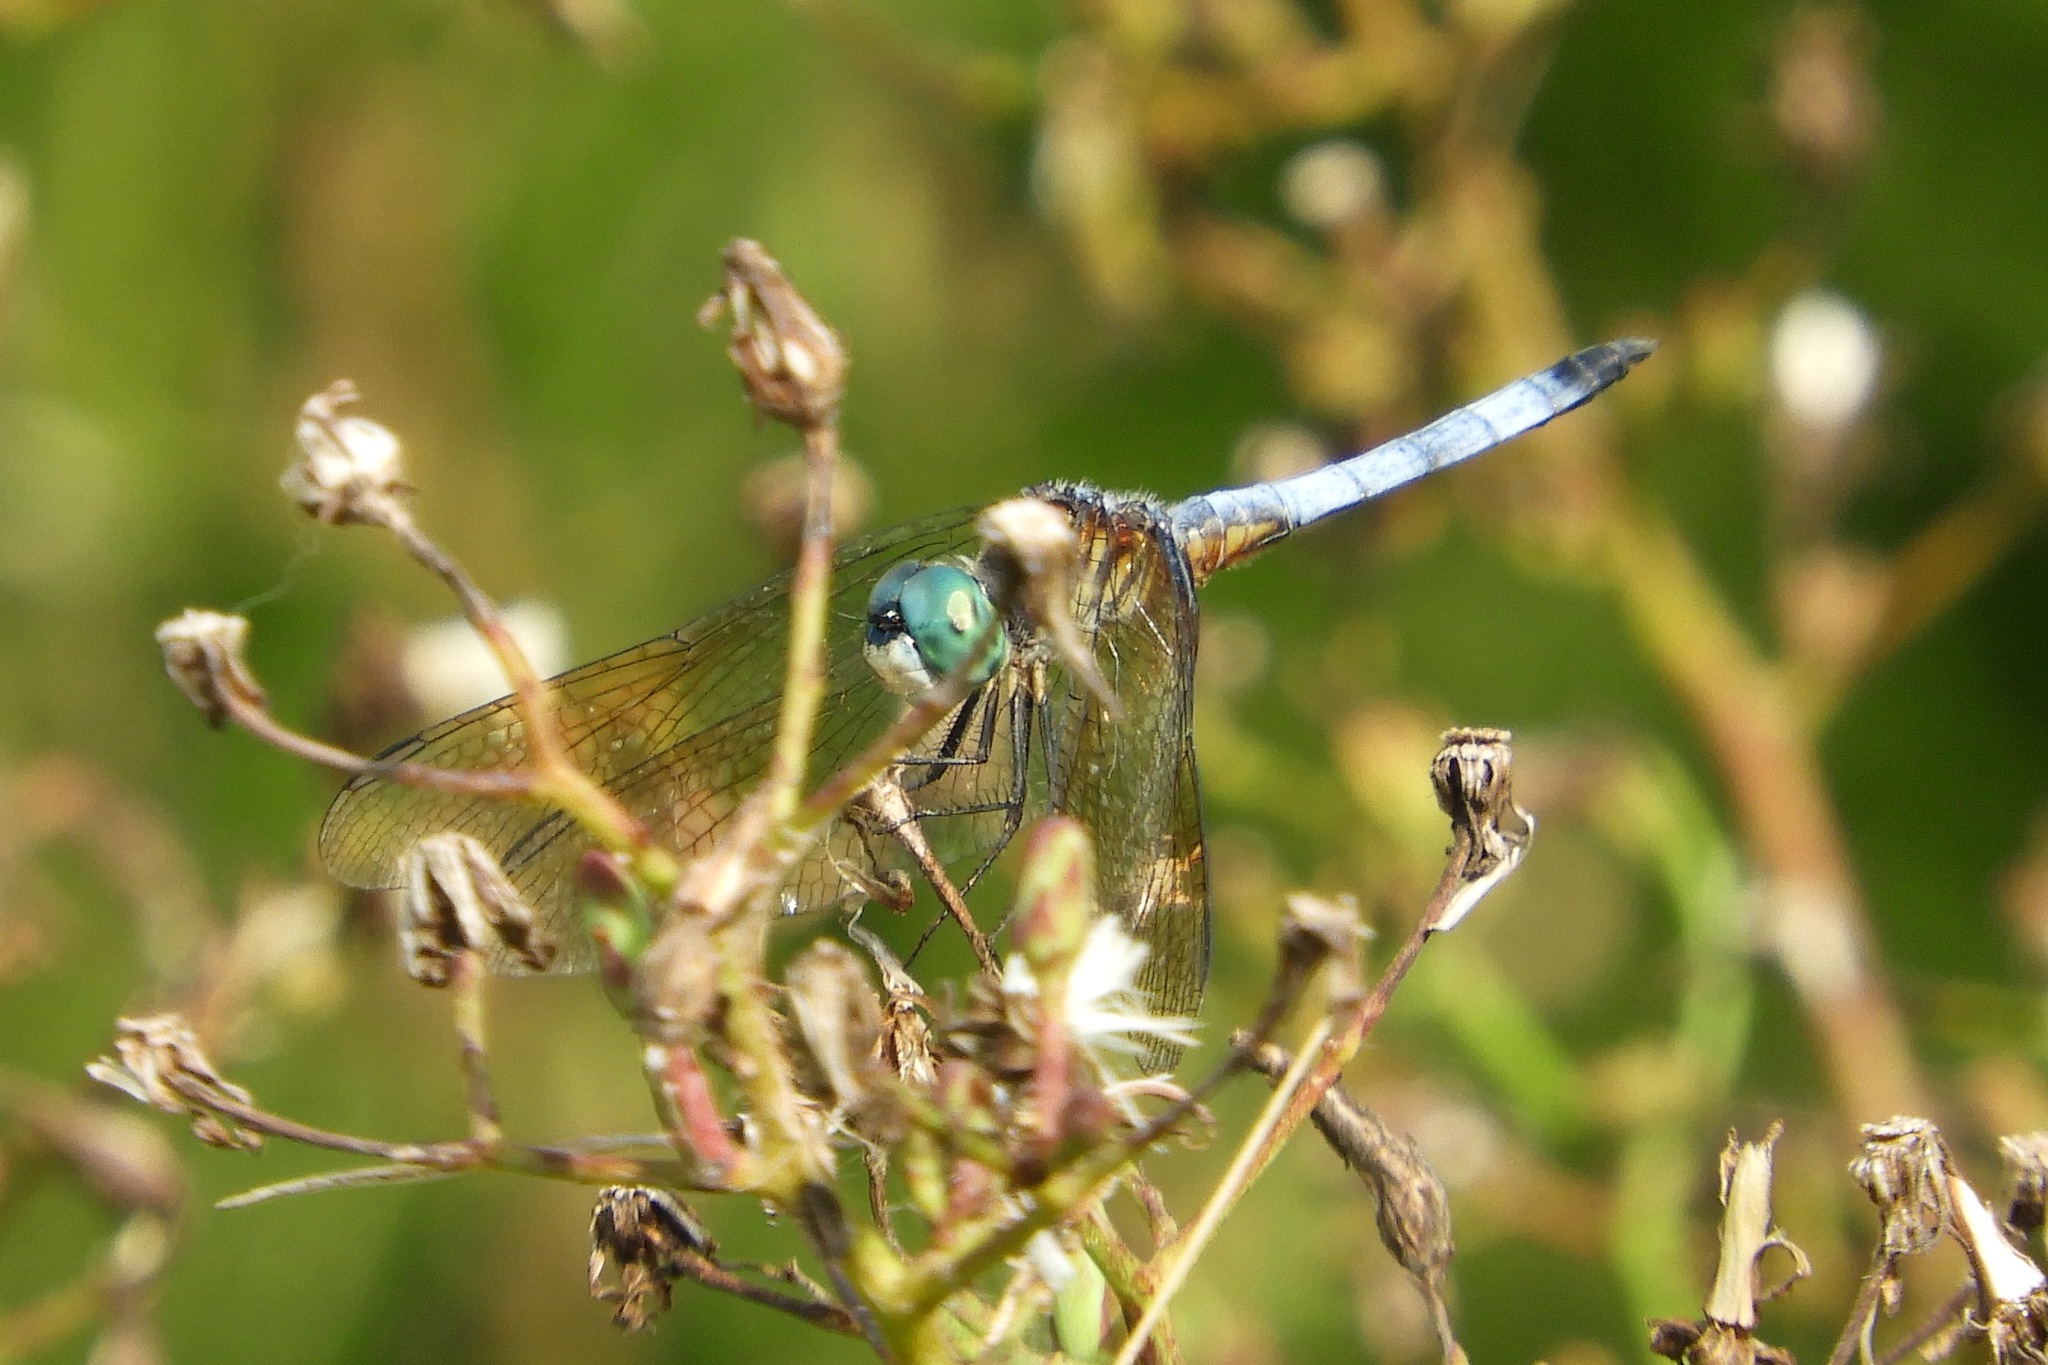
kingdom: Animalia
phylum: Arthropoda
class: Insecta
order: Odonata
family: Libellulidae
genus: Pachydiplax
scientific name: Pachydiplax longipennis
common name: Blue dasher
